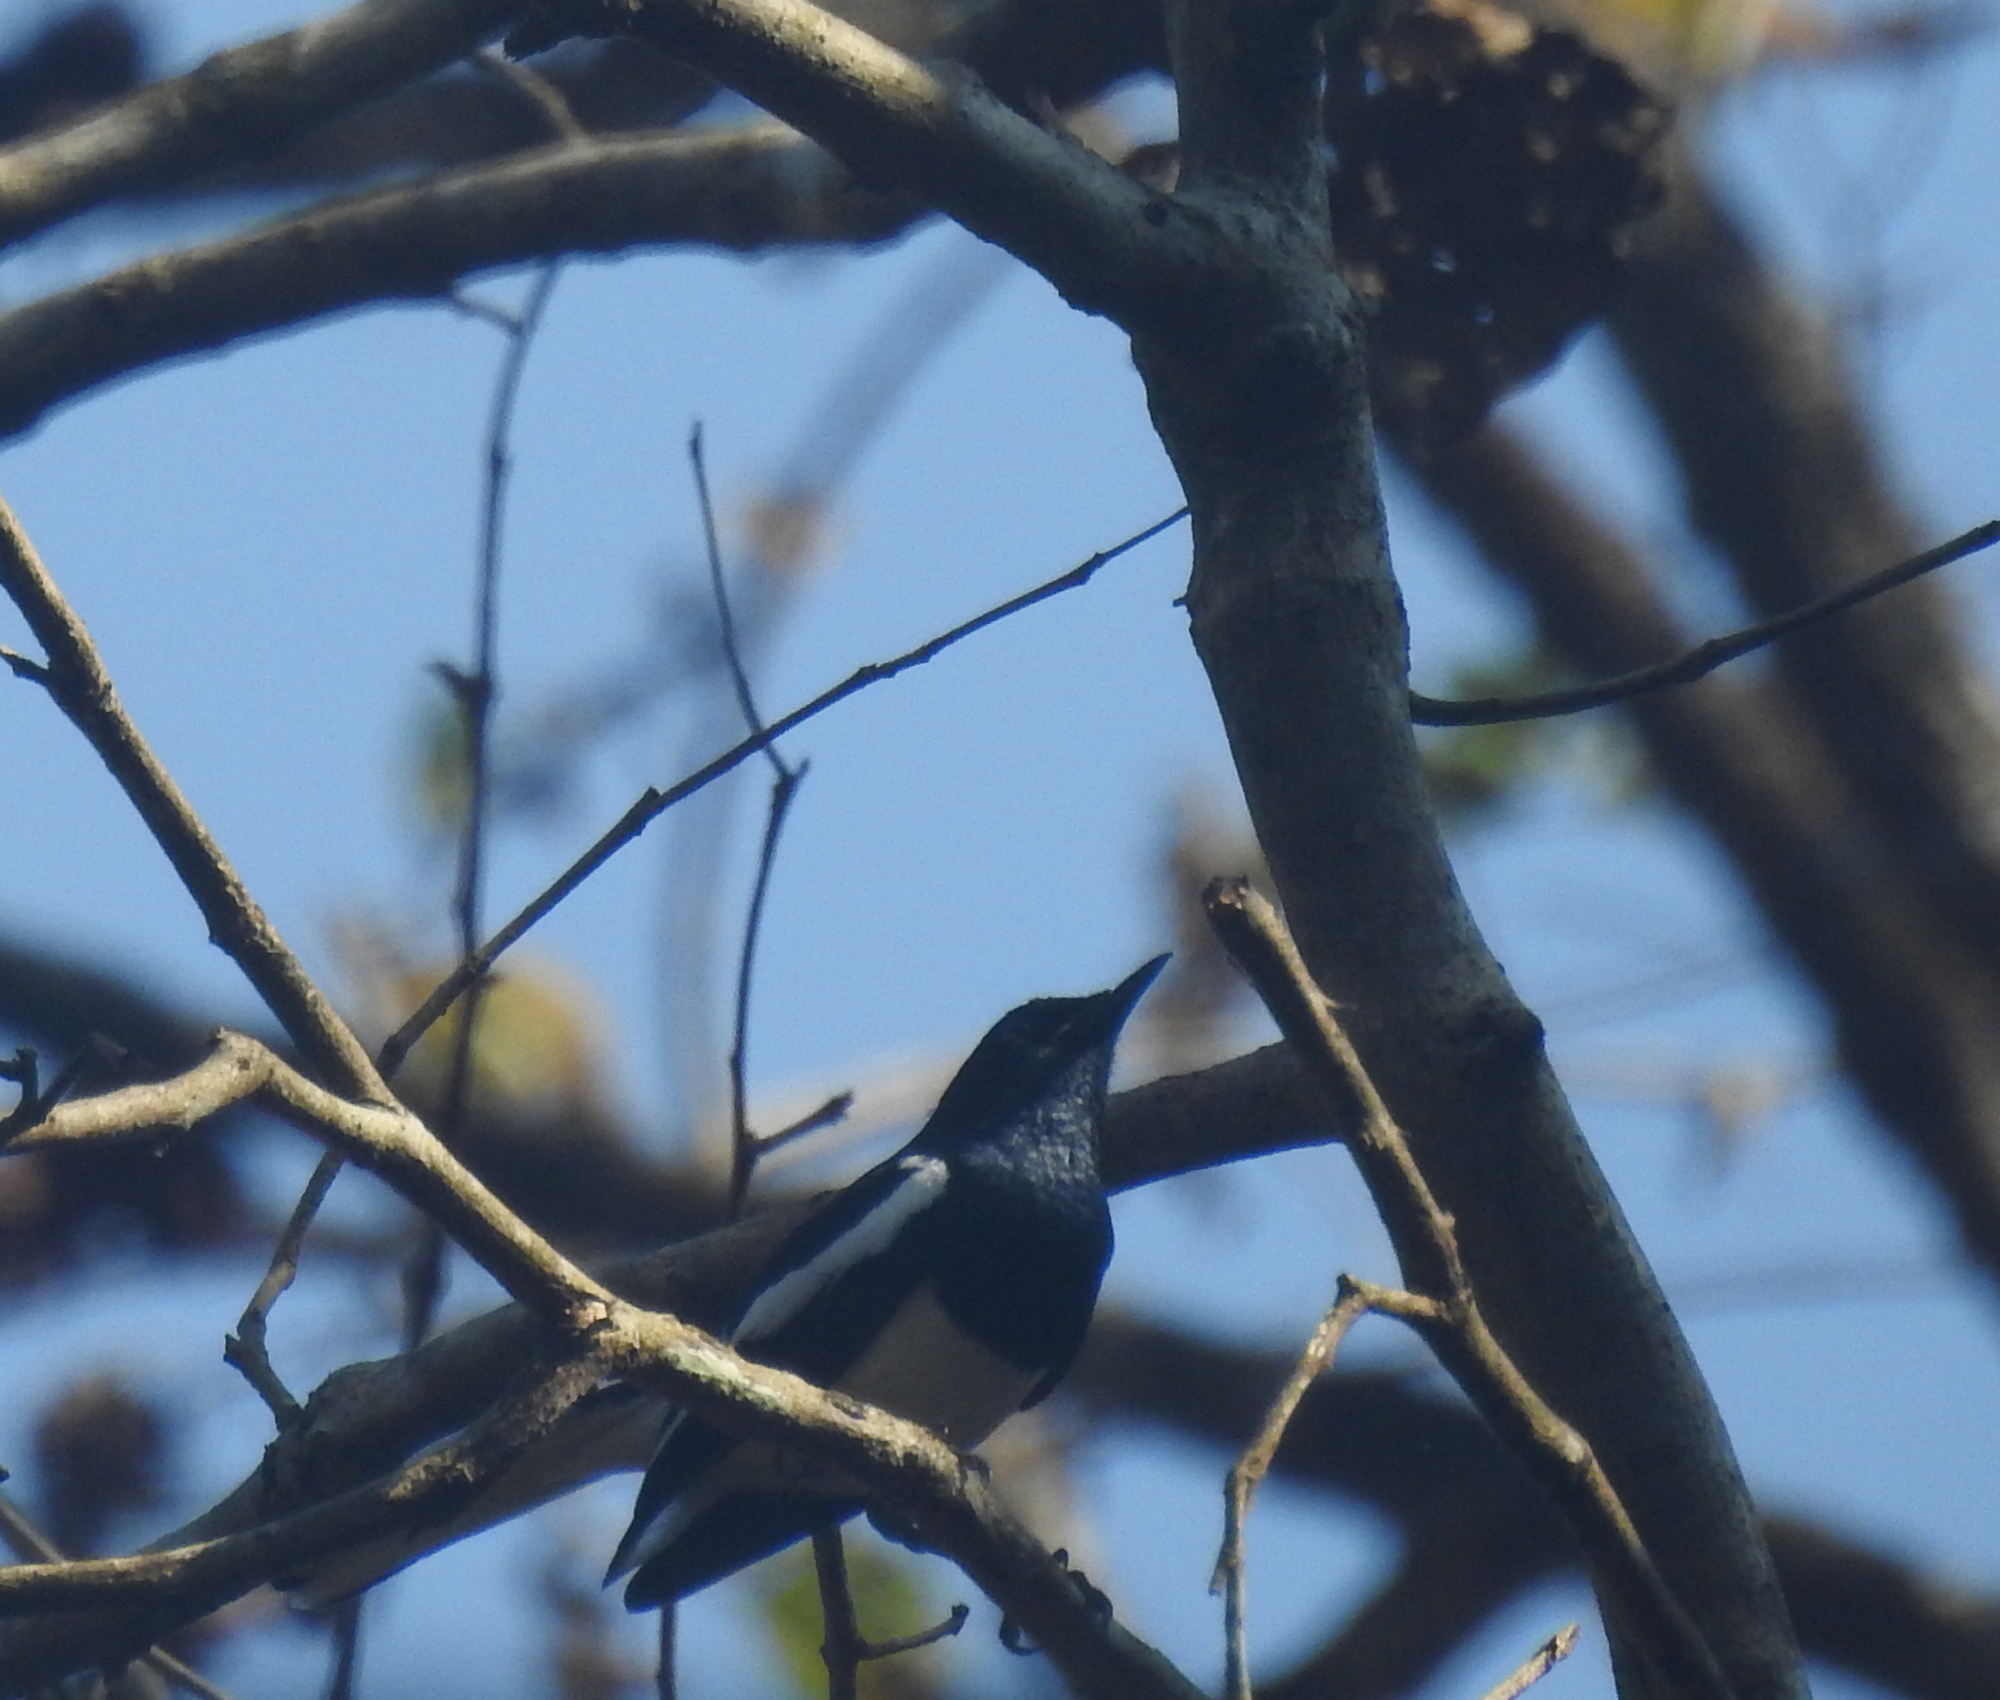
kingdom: Animalia
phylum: Chordata
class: Aves
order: Passeriformes
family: Muscicapidae
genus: Copsychus
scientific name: Copsychus saularis
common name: Oriental magpie-robin
